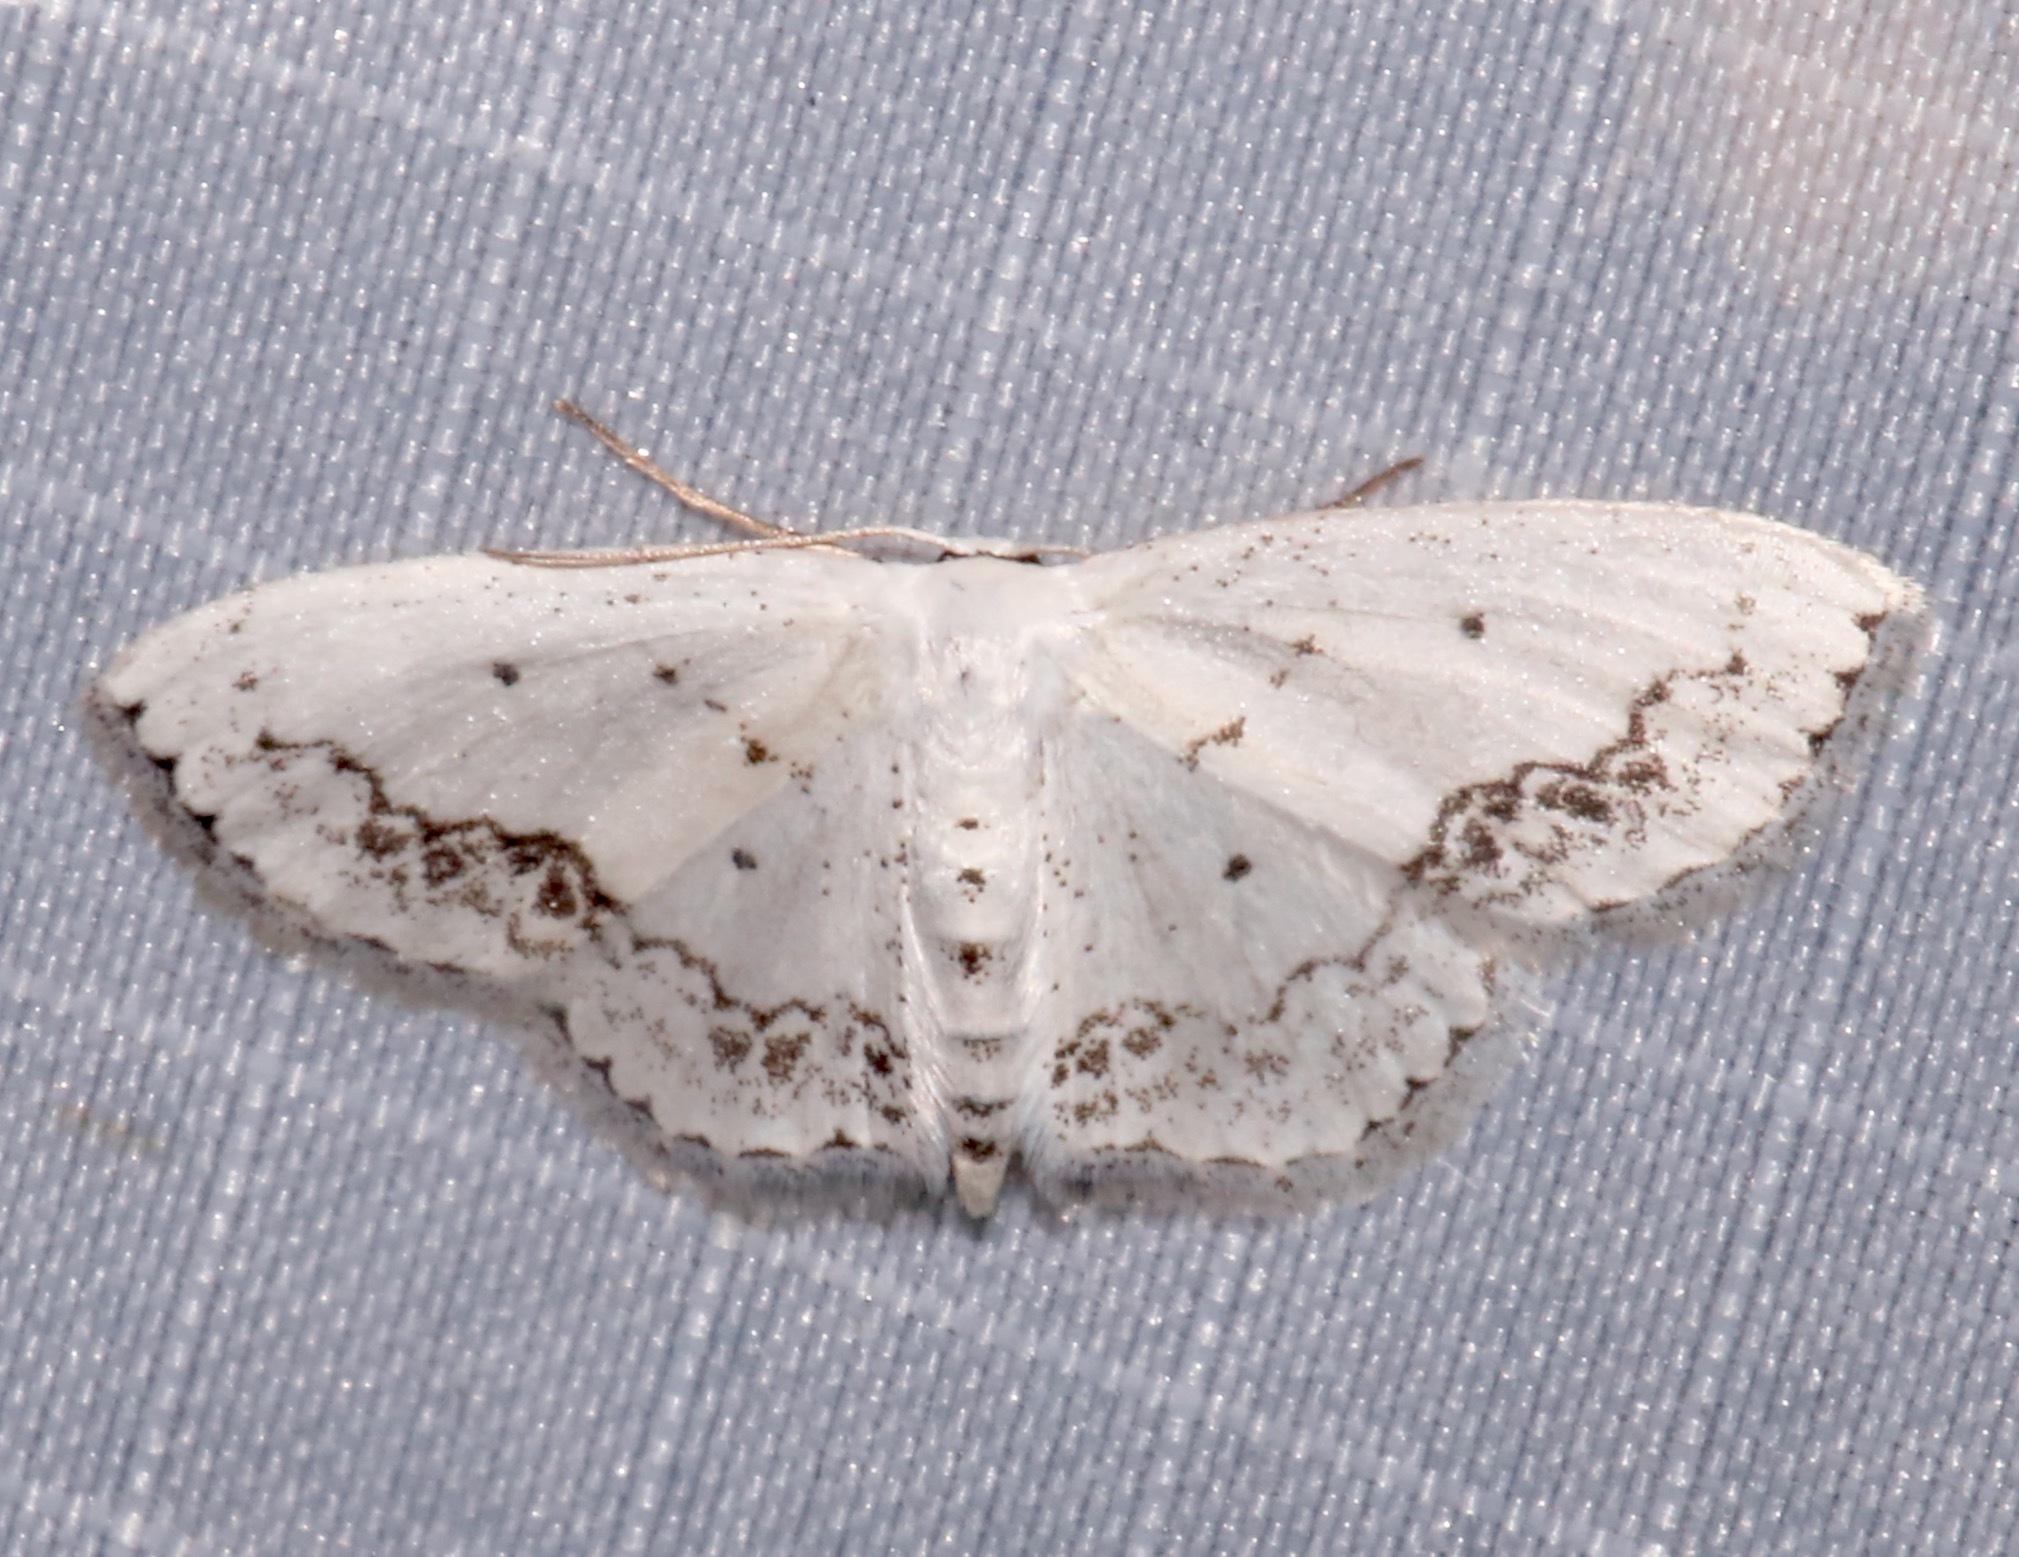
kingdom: Animalia
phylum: Arthropoda
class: Insecta
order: Lepidoptera
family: Geometridae
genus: Scopula
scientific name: Scopula purata
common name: Chalky wave moth
